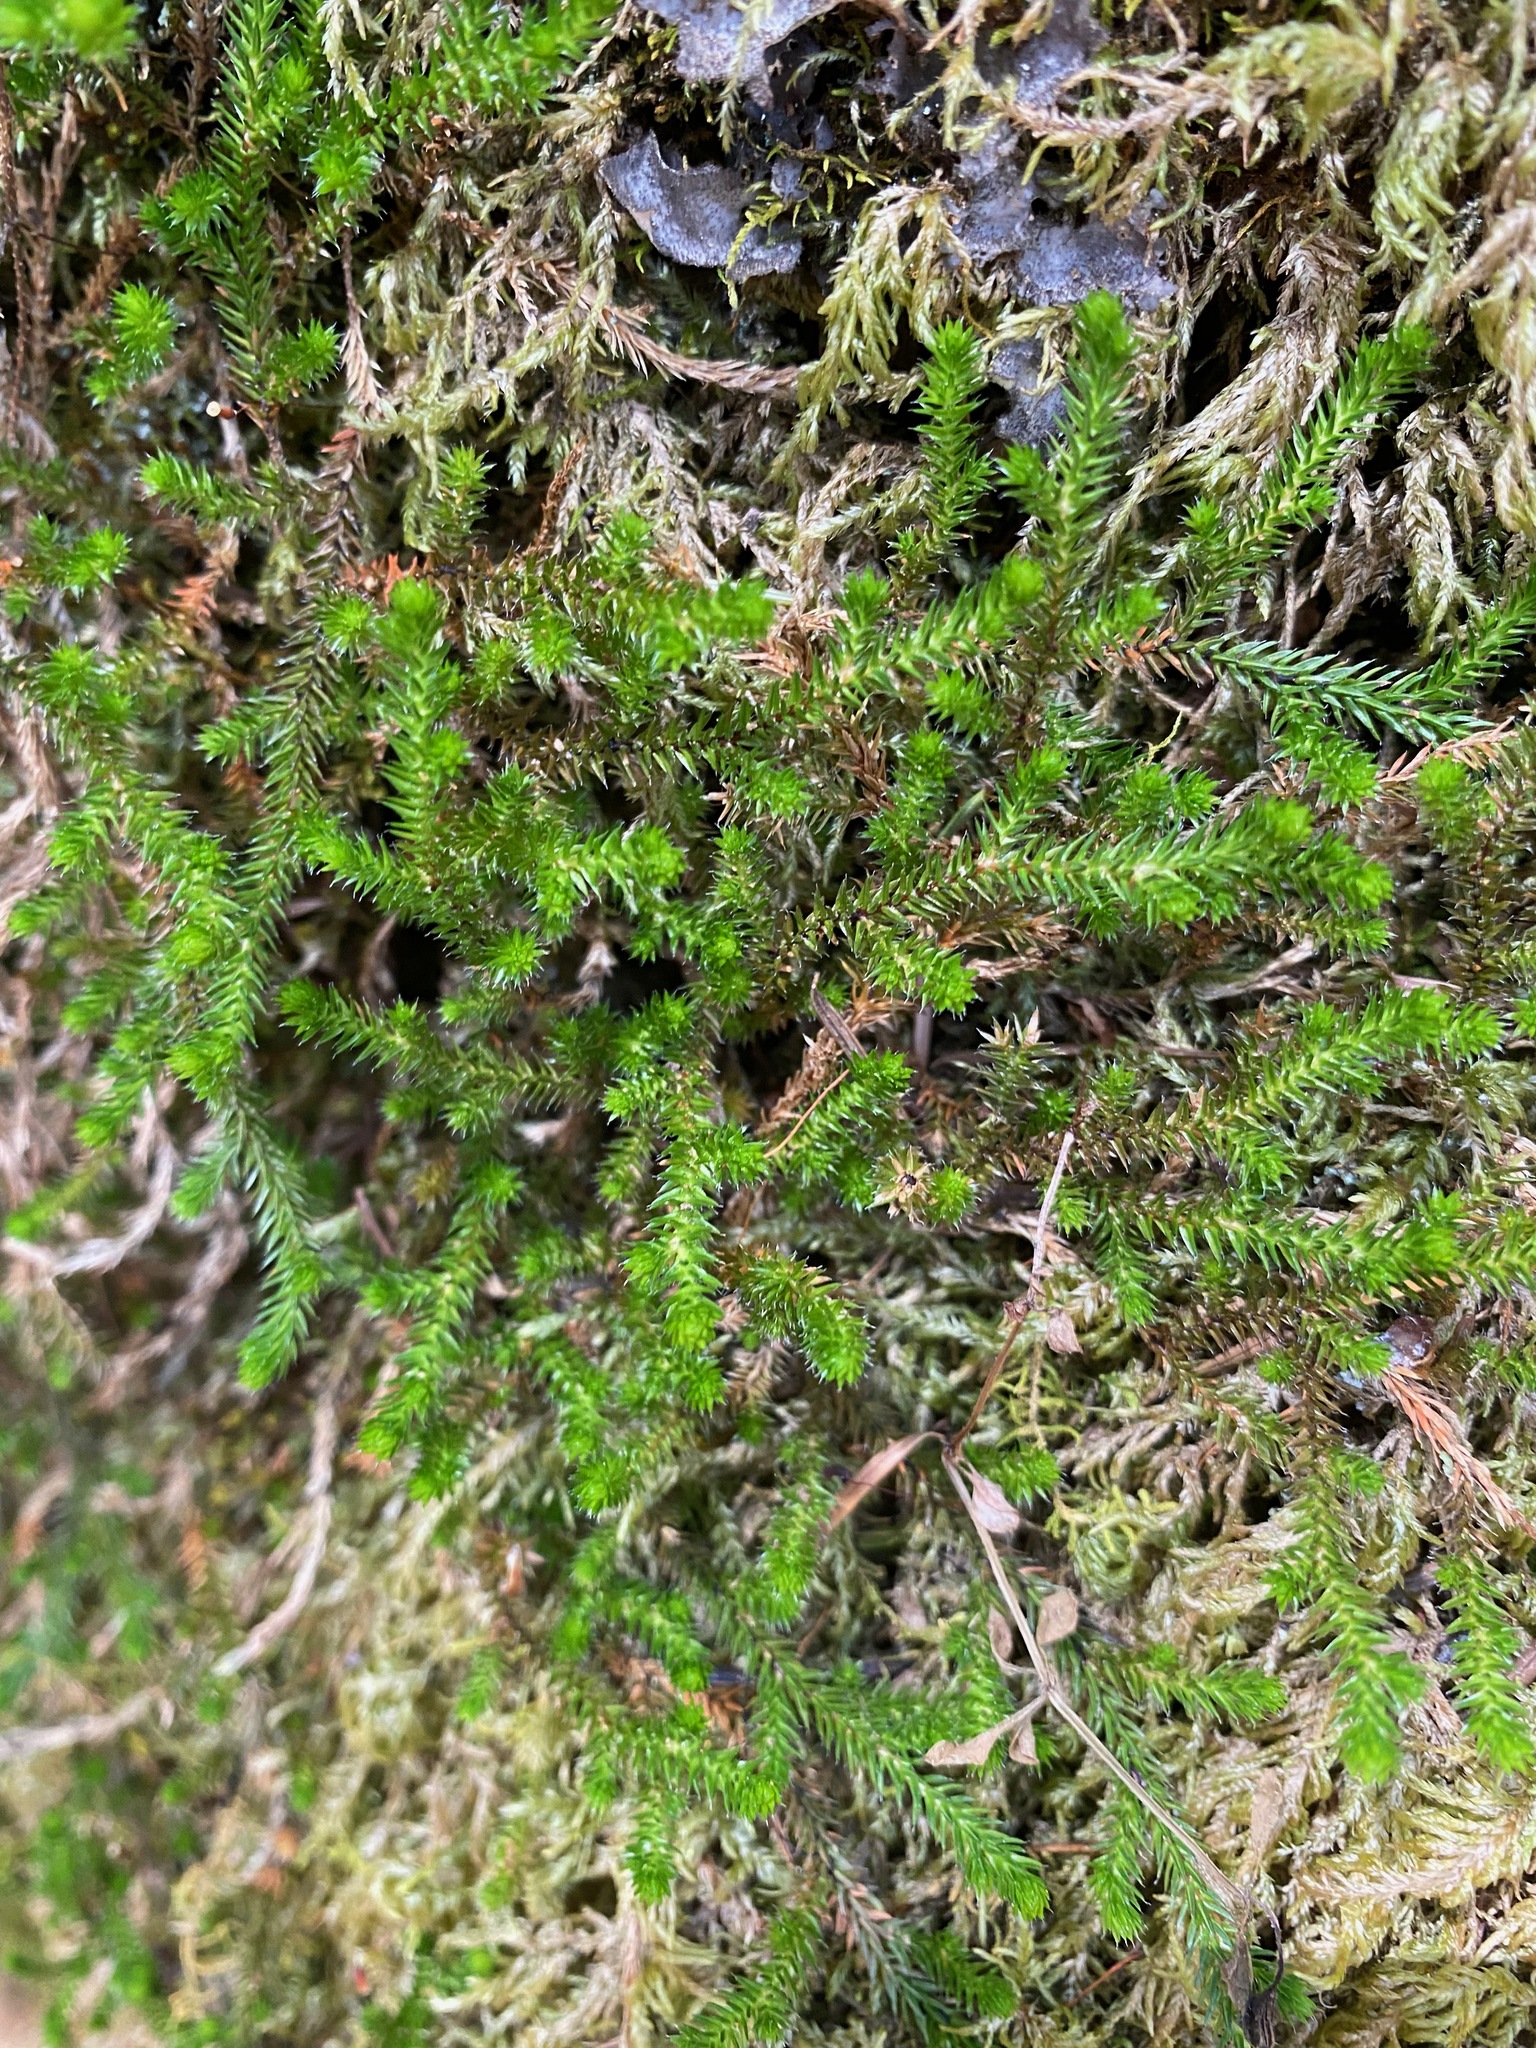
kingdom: Plantae
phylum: Tracheophyta
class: Lycopodiopsida
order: Selaginellales
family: Selaginellaceae
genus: Selaginella
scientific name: Selaginella wallacei
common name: Wallace's selaginella
